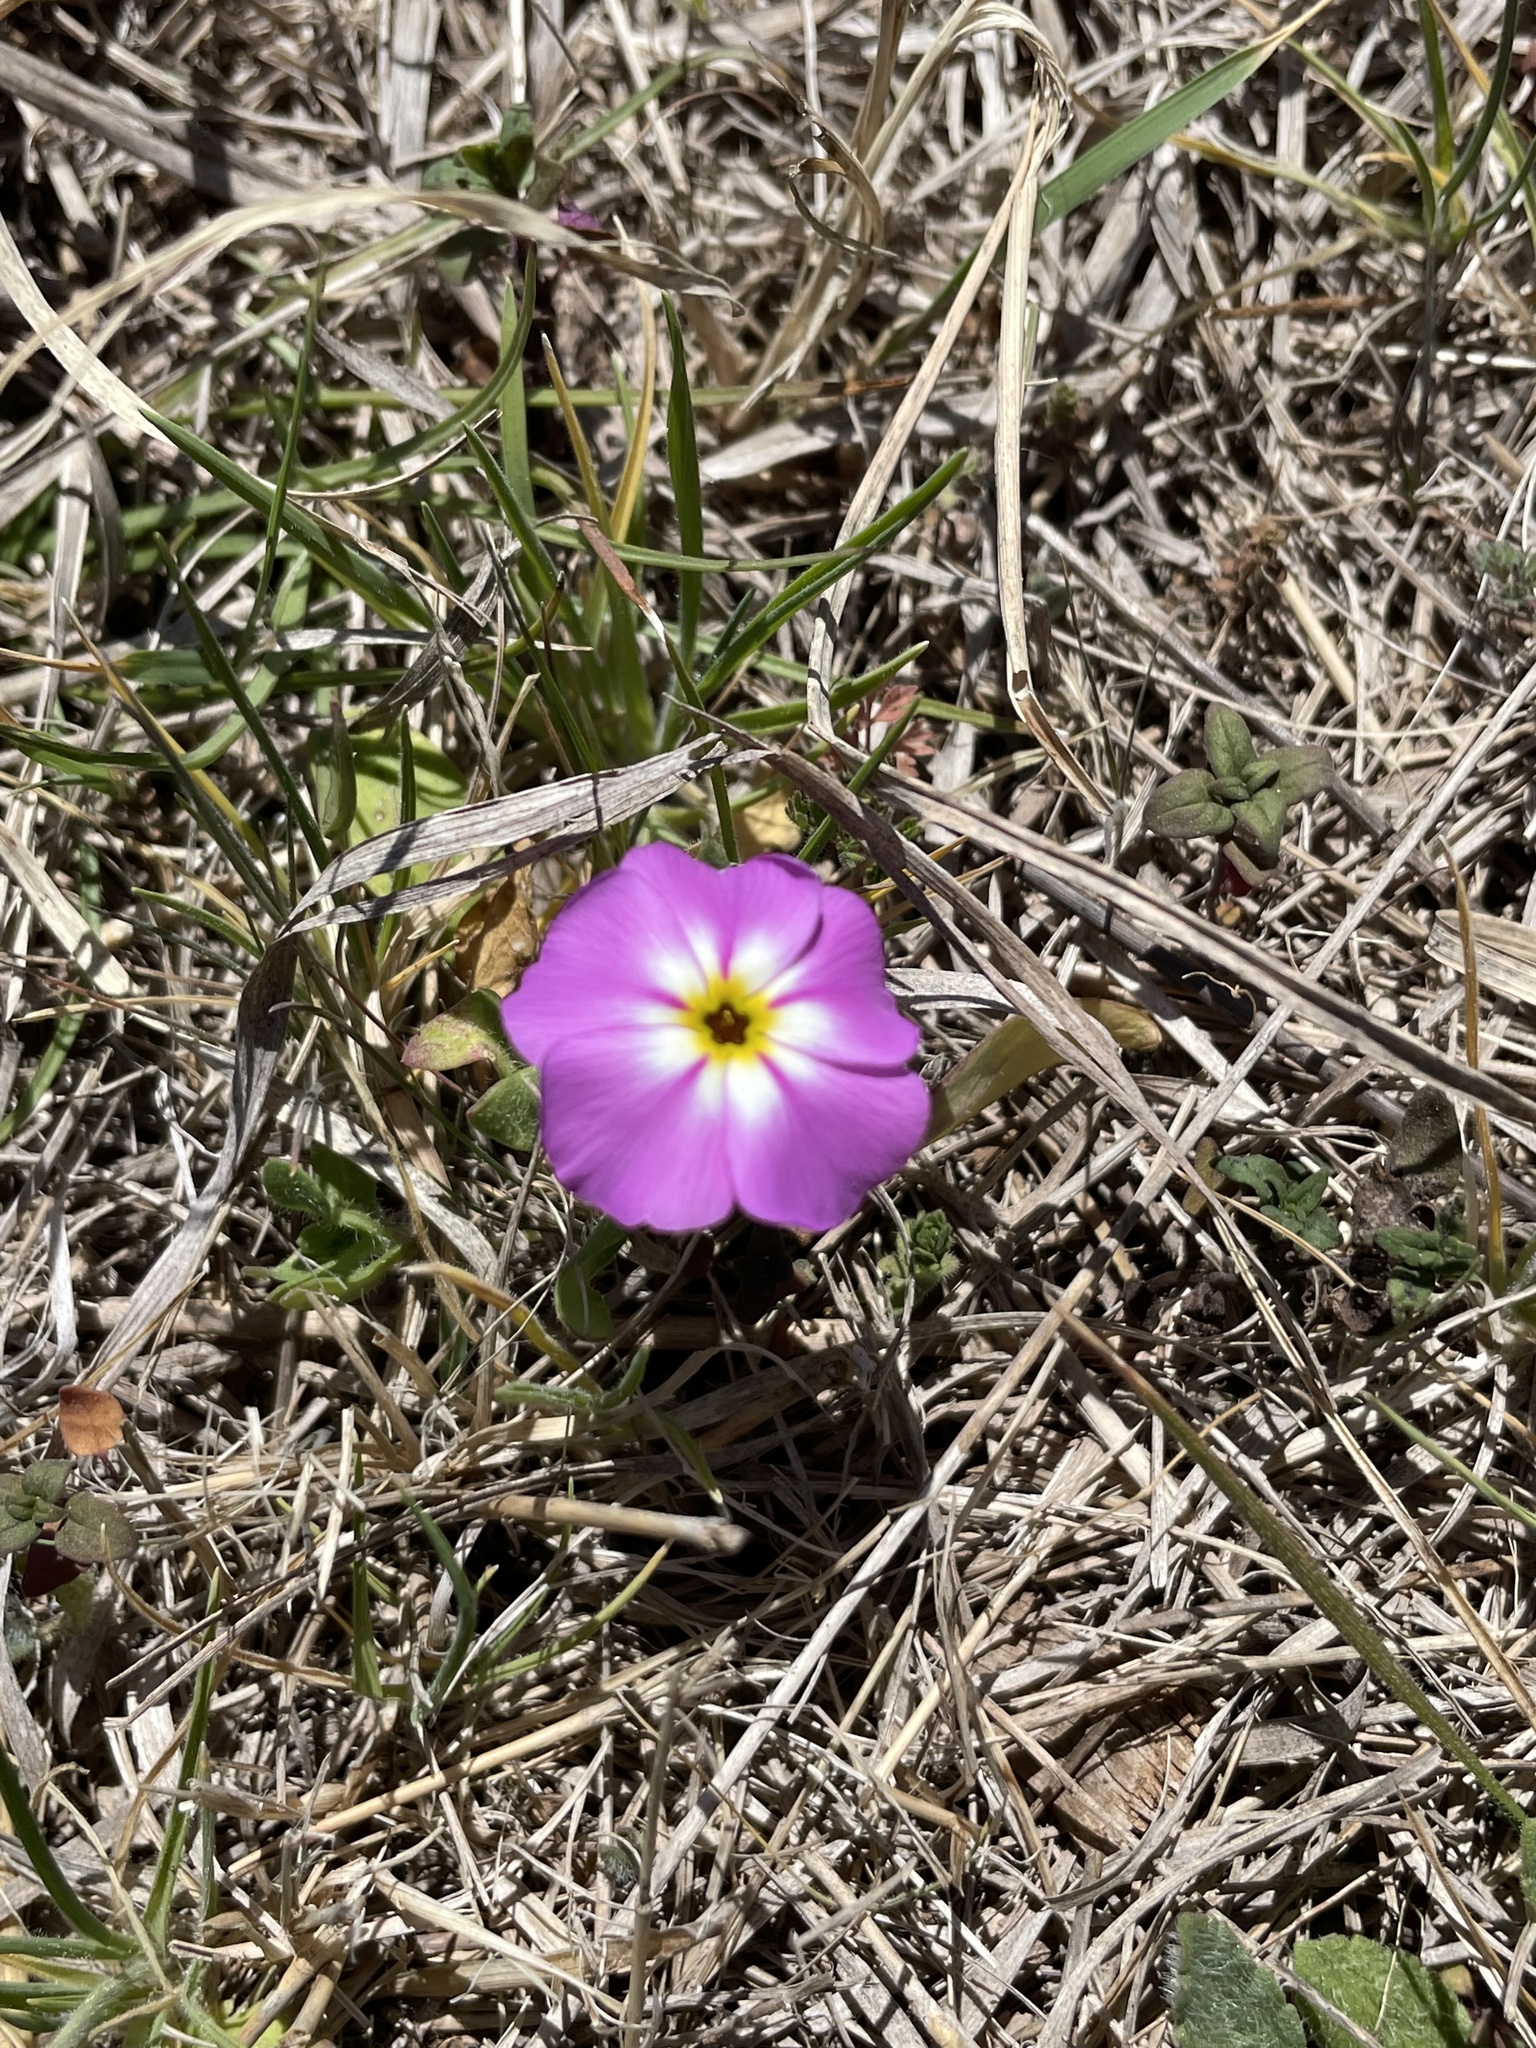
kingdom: Plantae
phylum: Tracheophyta
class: Magnoliopsida
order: Ericales
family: Polemoniaceae
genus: Phlox
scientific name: Phlox roemeriana
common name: Roemer's phlox
